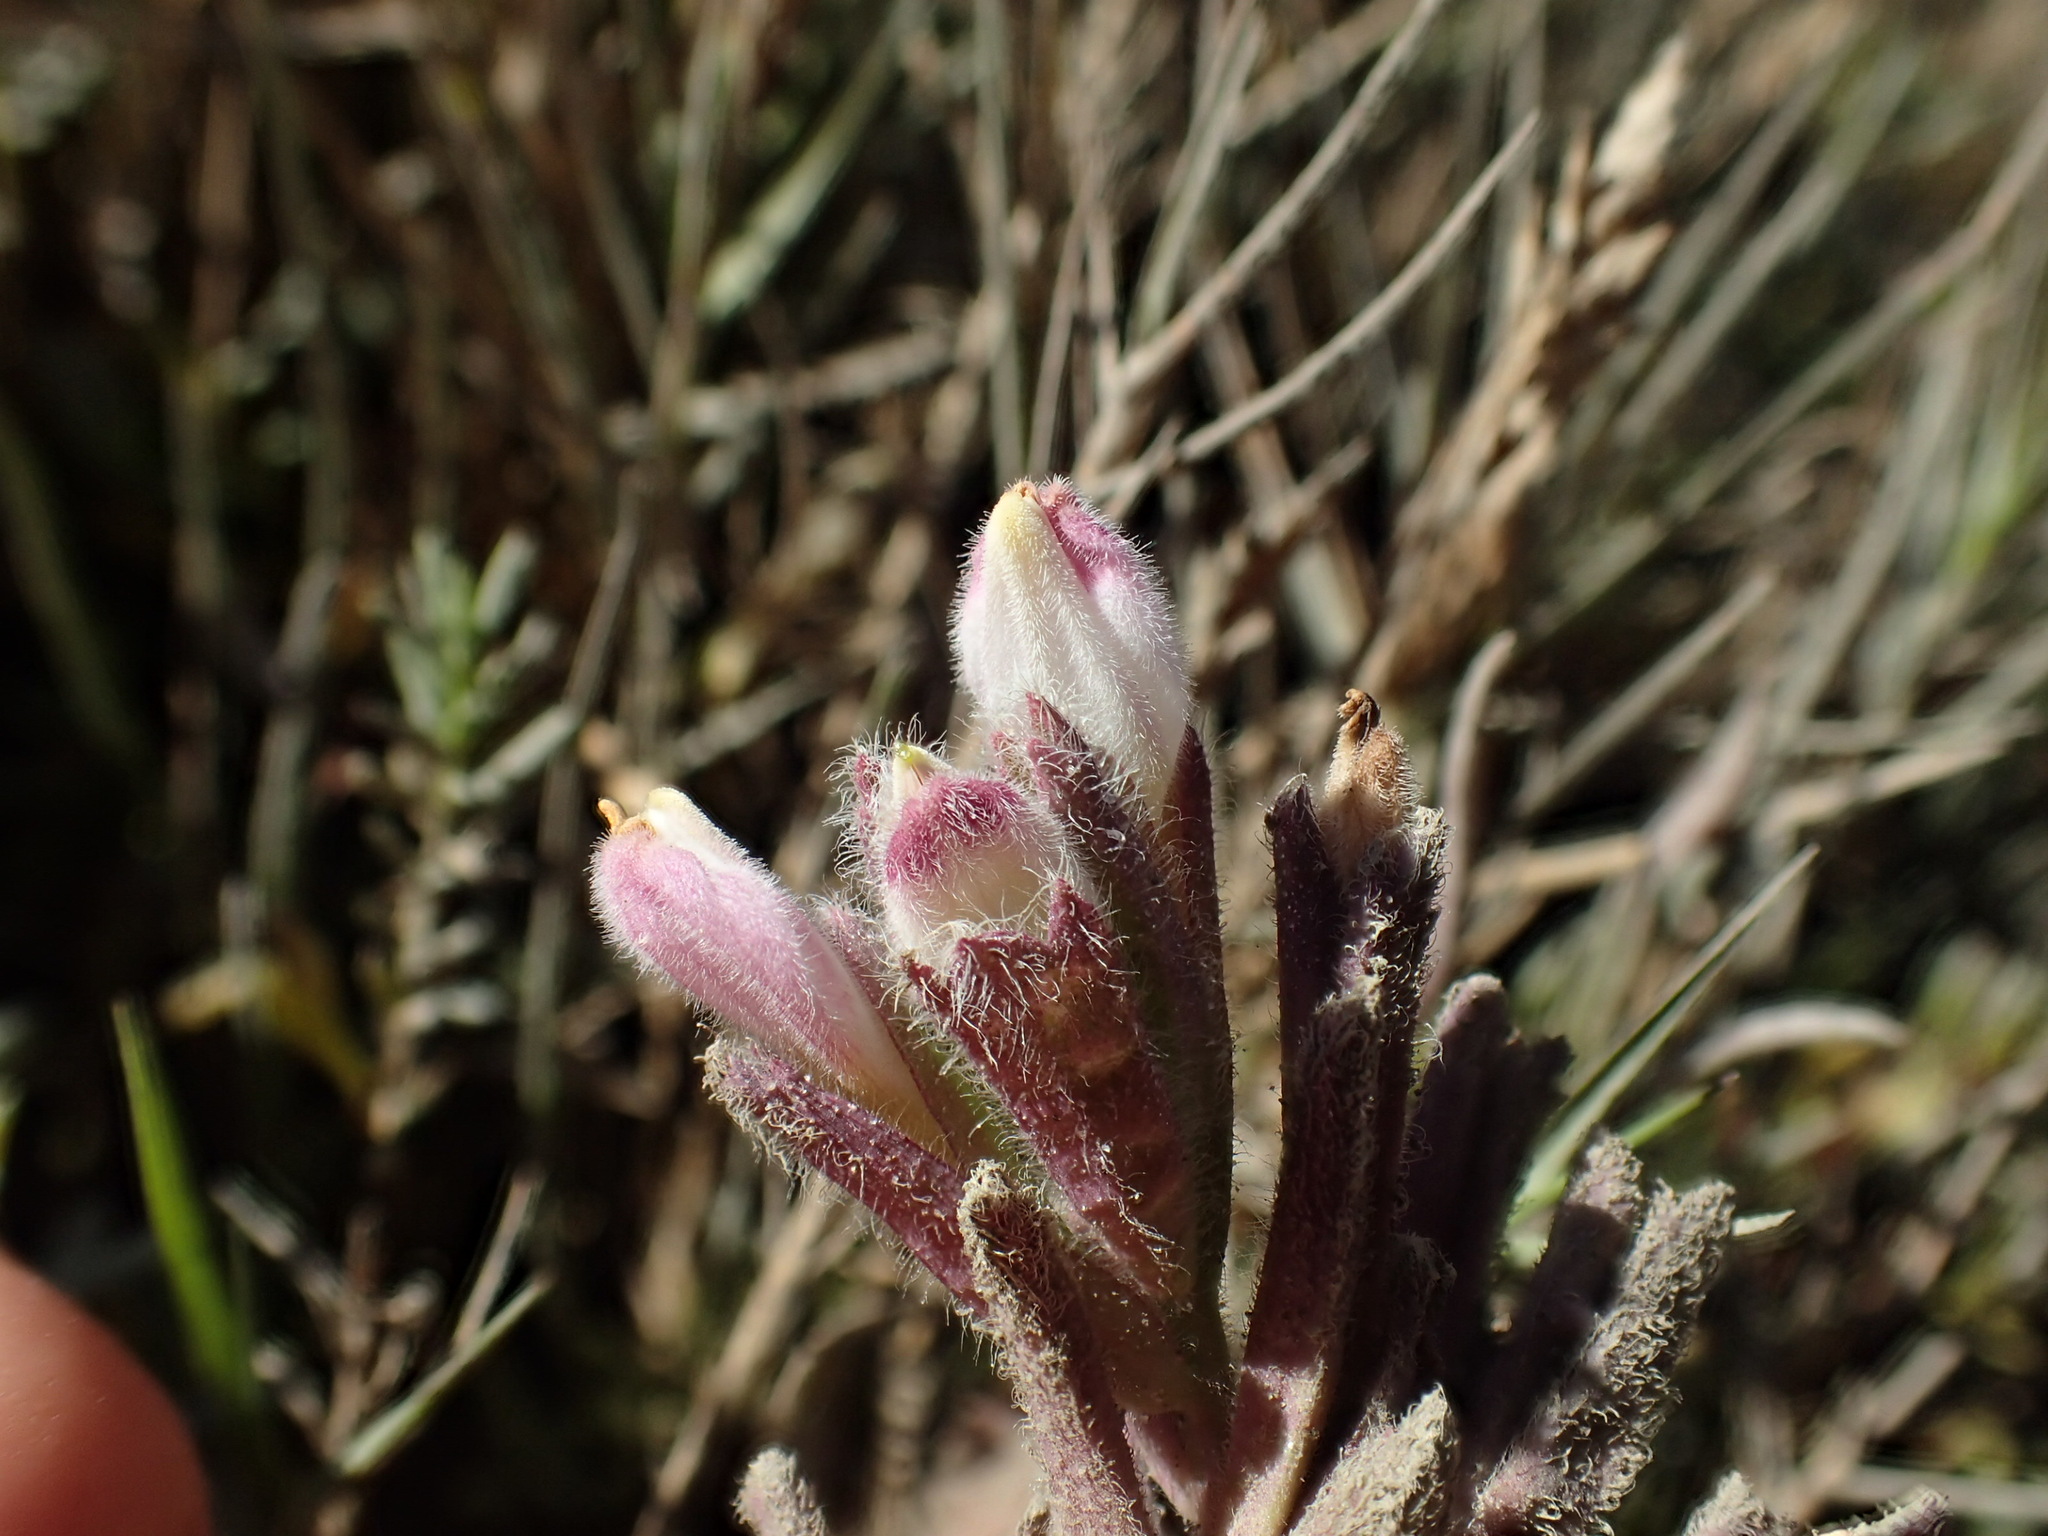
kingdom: Plantae
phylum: Tracheophyta
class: Magnoliopsida
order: Lamiales
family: Orobanchaceae
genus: Chloropyron
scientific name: Chloropyron maritimum
